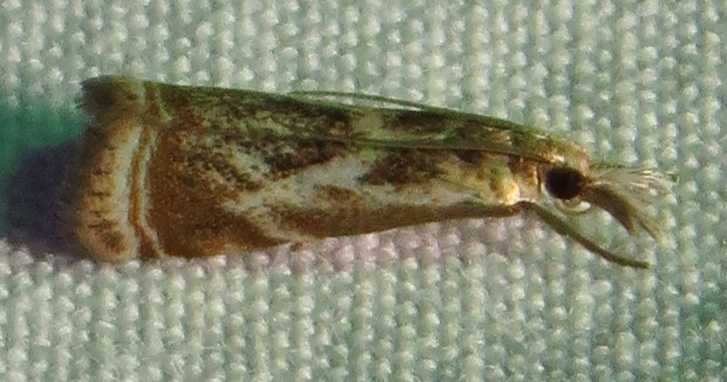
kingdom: Animalia
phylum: Arthropoda
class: Insecta
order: Lepidoptera
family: Crambidae
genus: Microcrambus
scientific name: Microcrambus elegans
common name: Elegant grass-veneer
